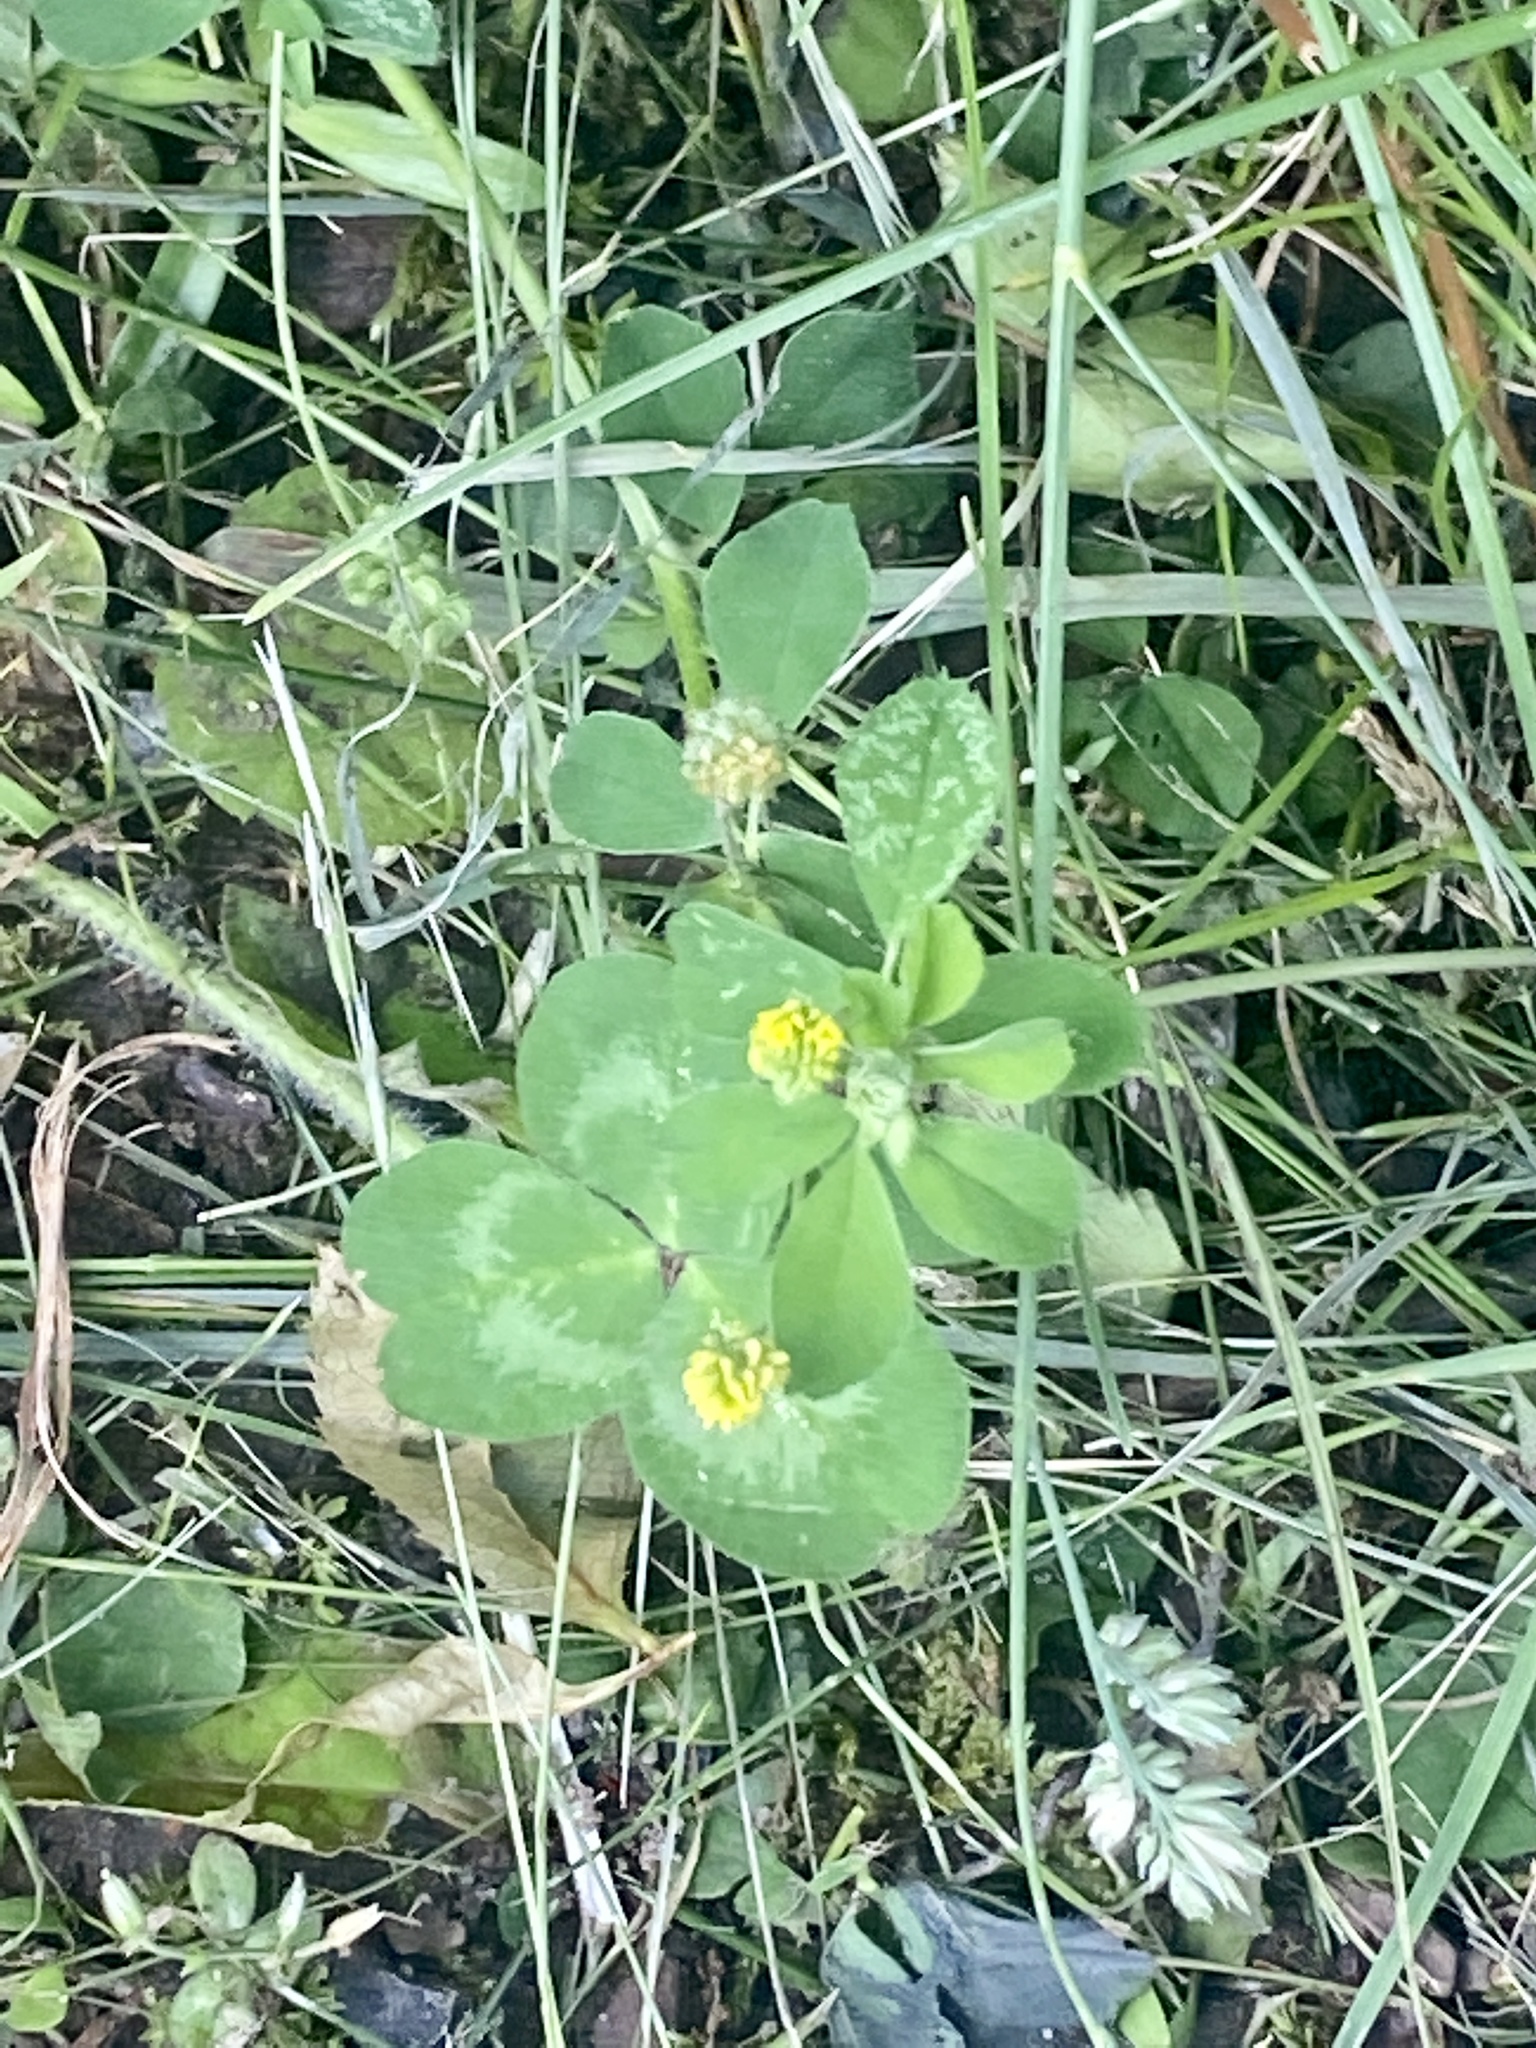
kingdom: Plantae
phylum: Tracheophyta
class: Magnoliopsida
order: Fabales
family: Fabaceae
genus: Medicago
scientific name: Medicago lupulina
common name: Black medick
